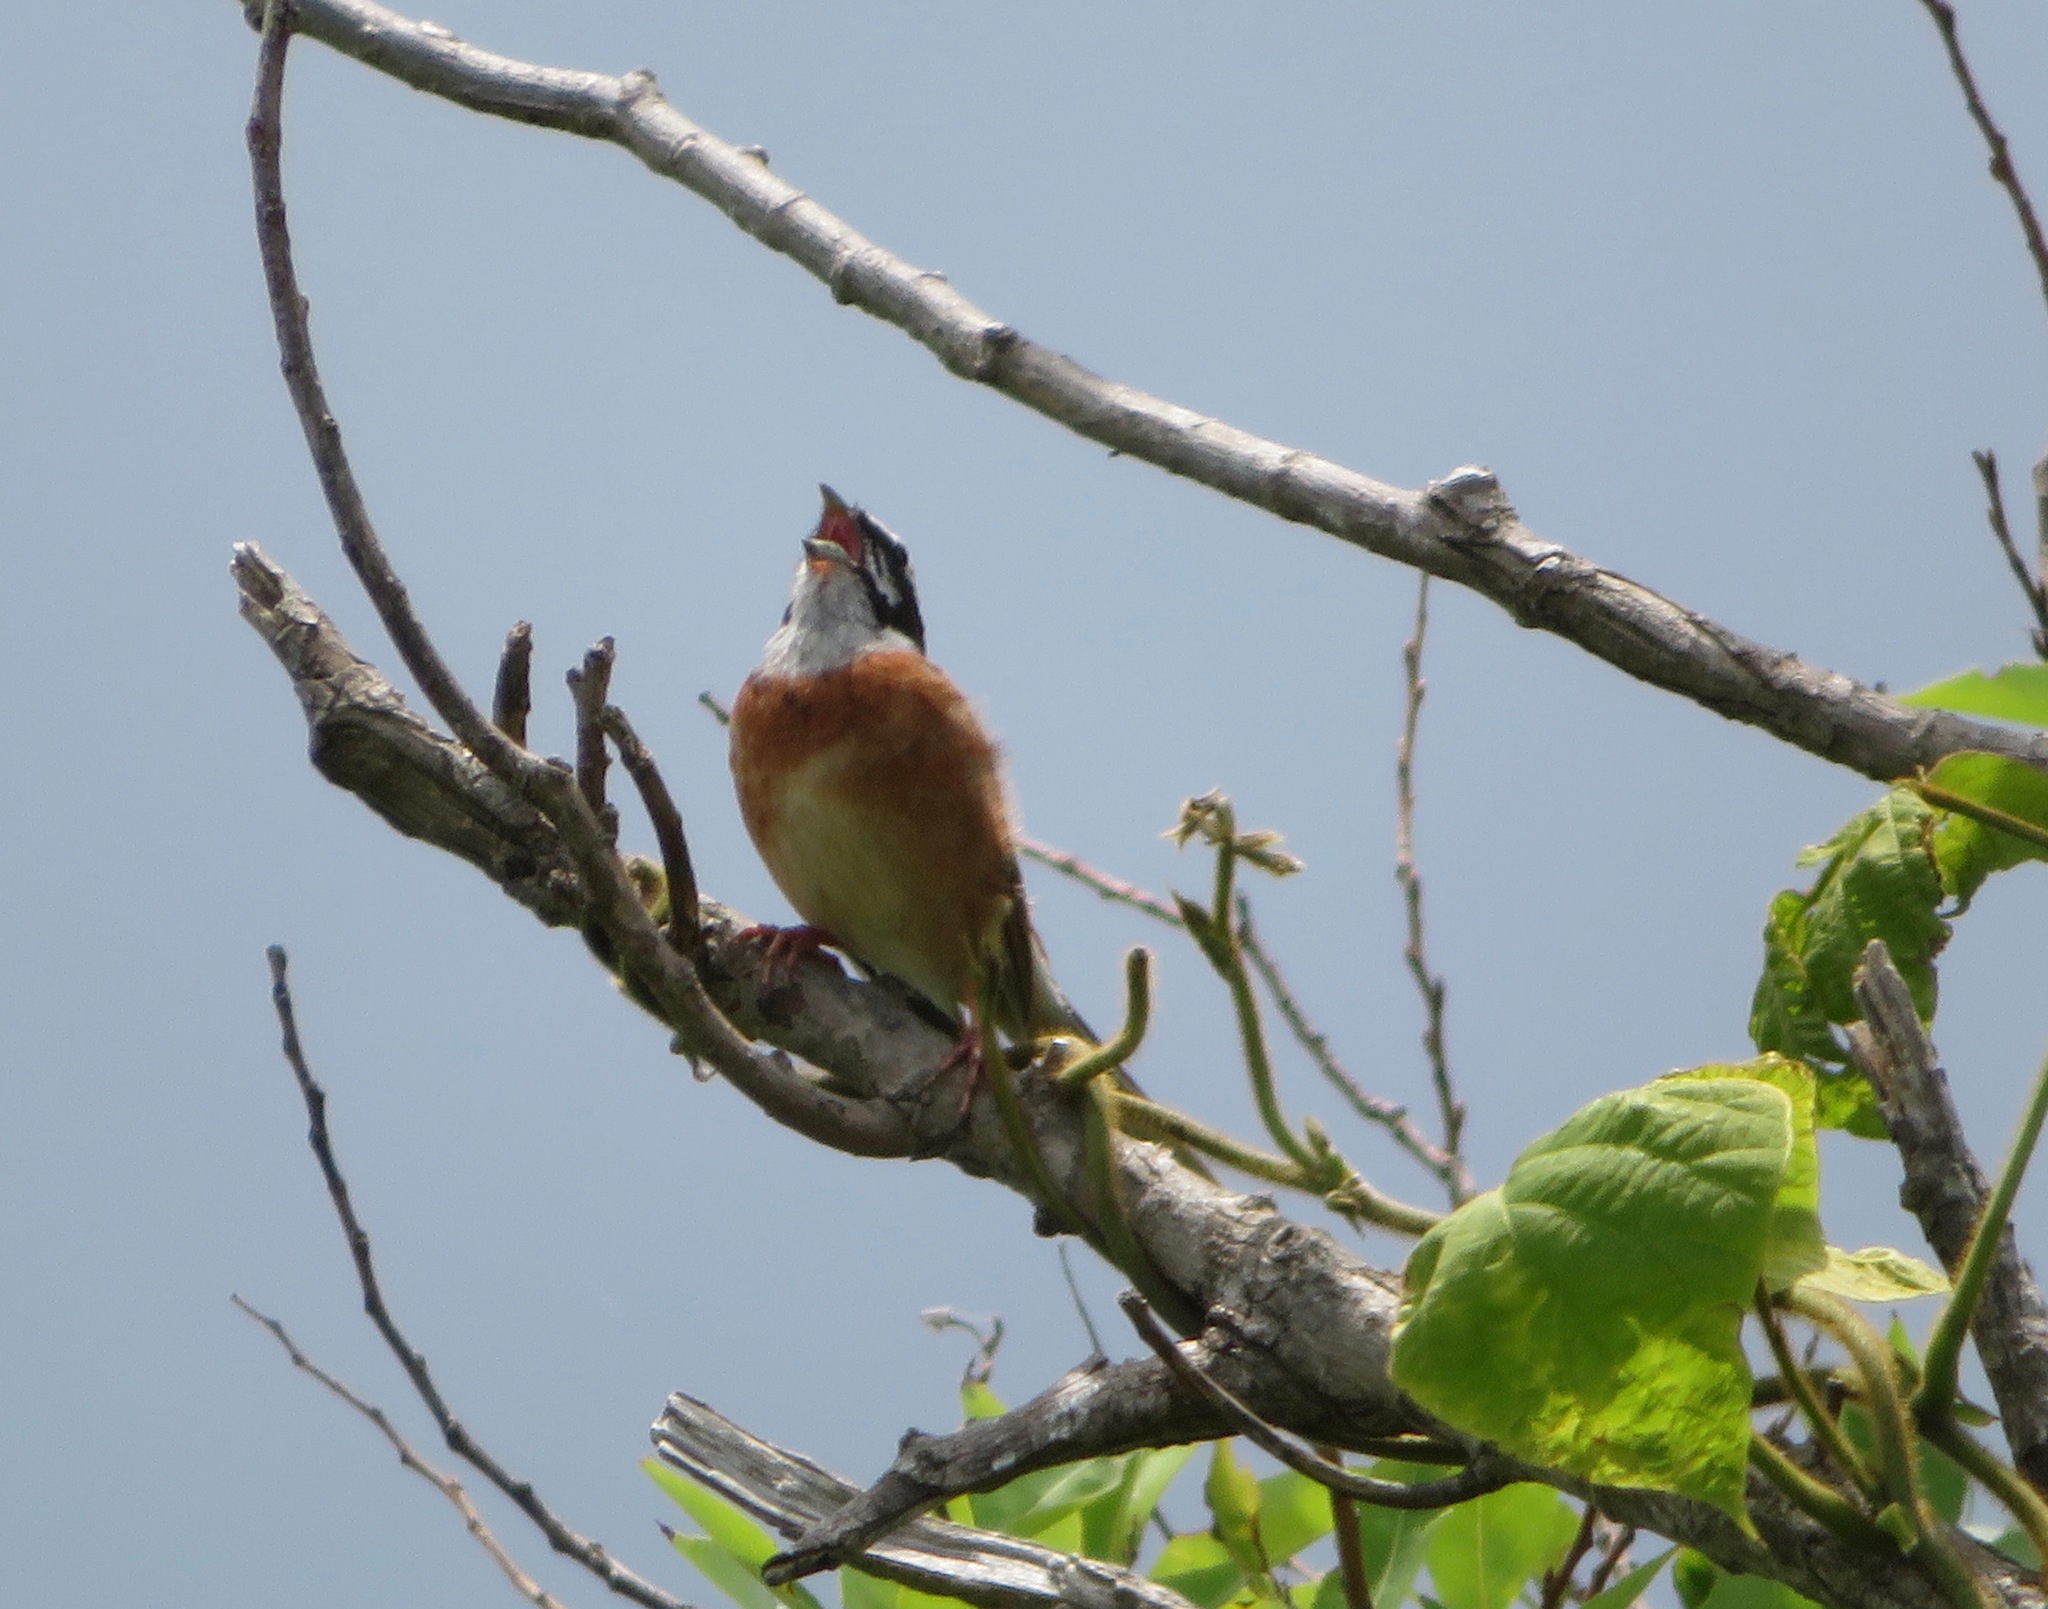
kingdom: Animalia
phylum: Chordata
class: Aves
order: Passeriformes
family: Emberizidae
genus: Emberiza
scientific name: Emberiza cioides
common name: Meadow bunting
